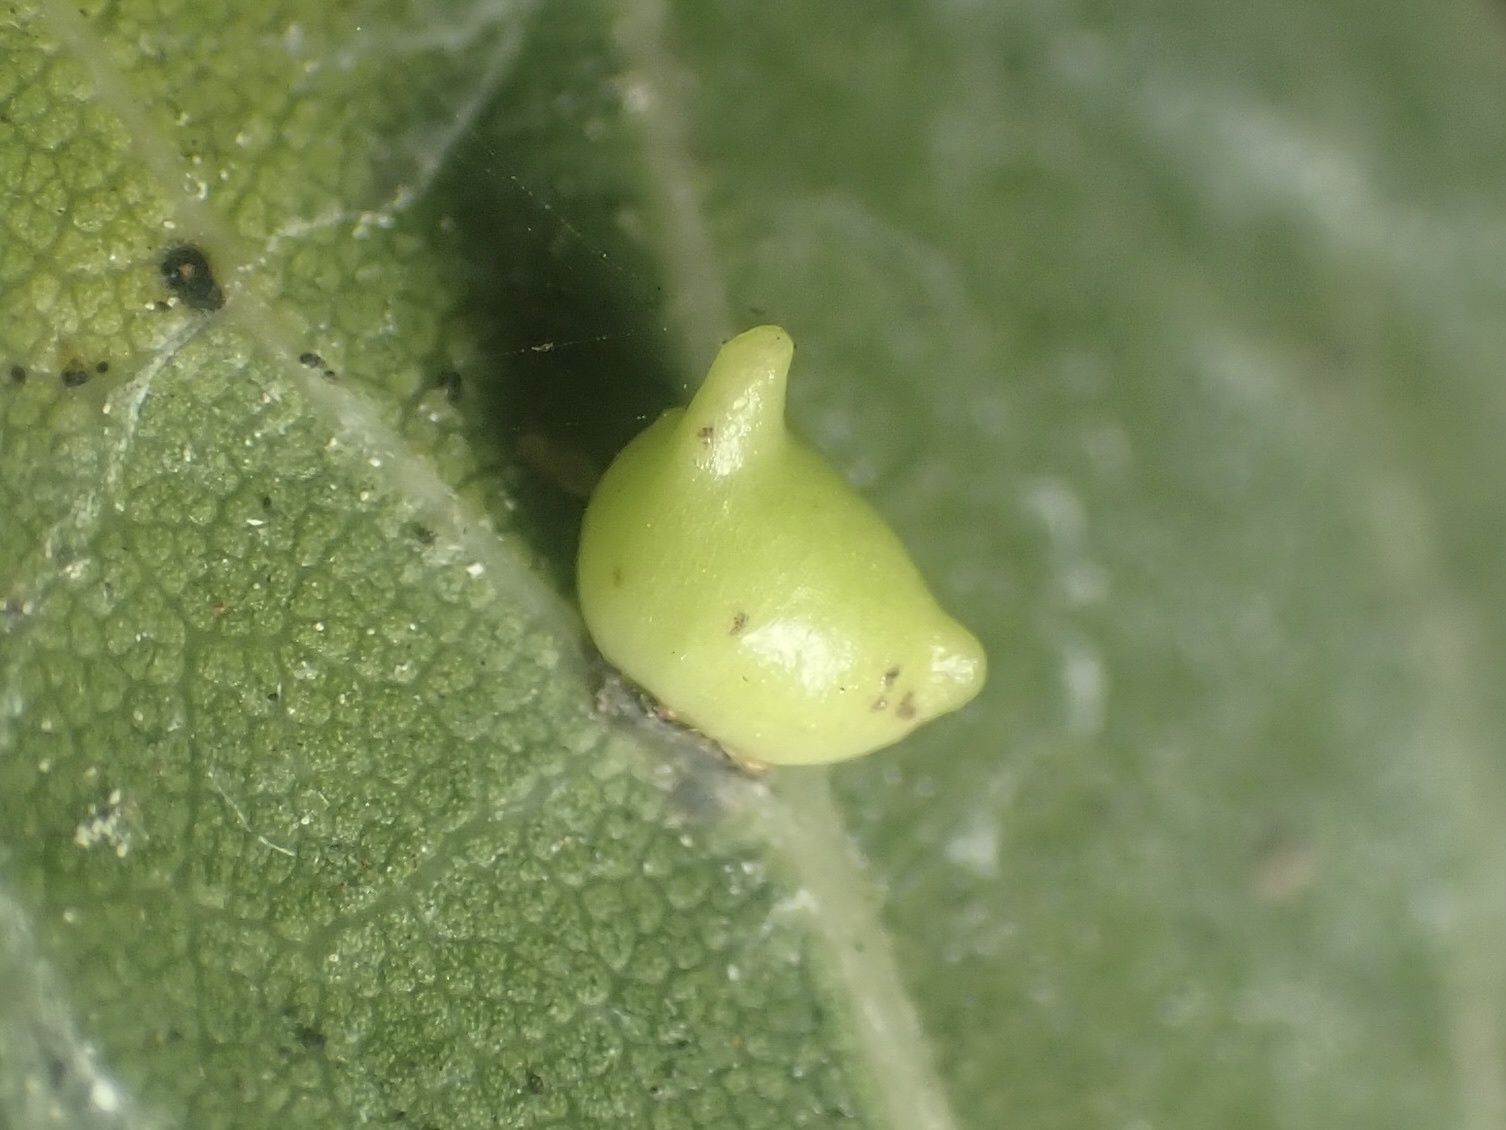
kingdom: Animalia
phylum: Arthropoda
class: Insecta
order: Hymenoptera
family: Cynipidae
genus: Dryocosmus
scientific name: Dryocosmus
